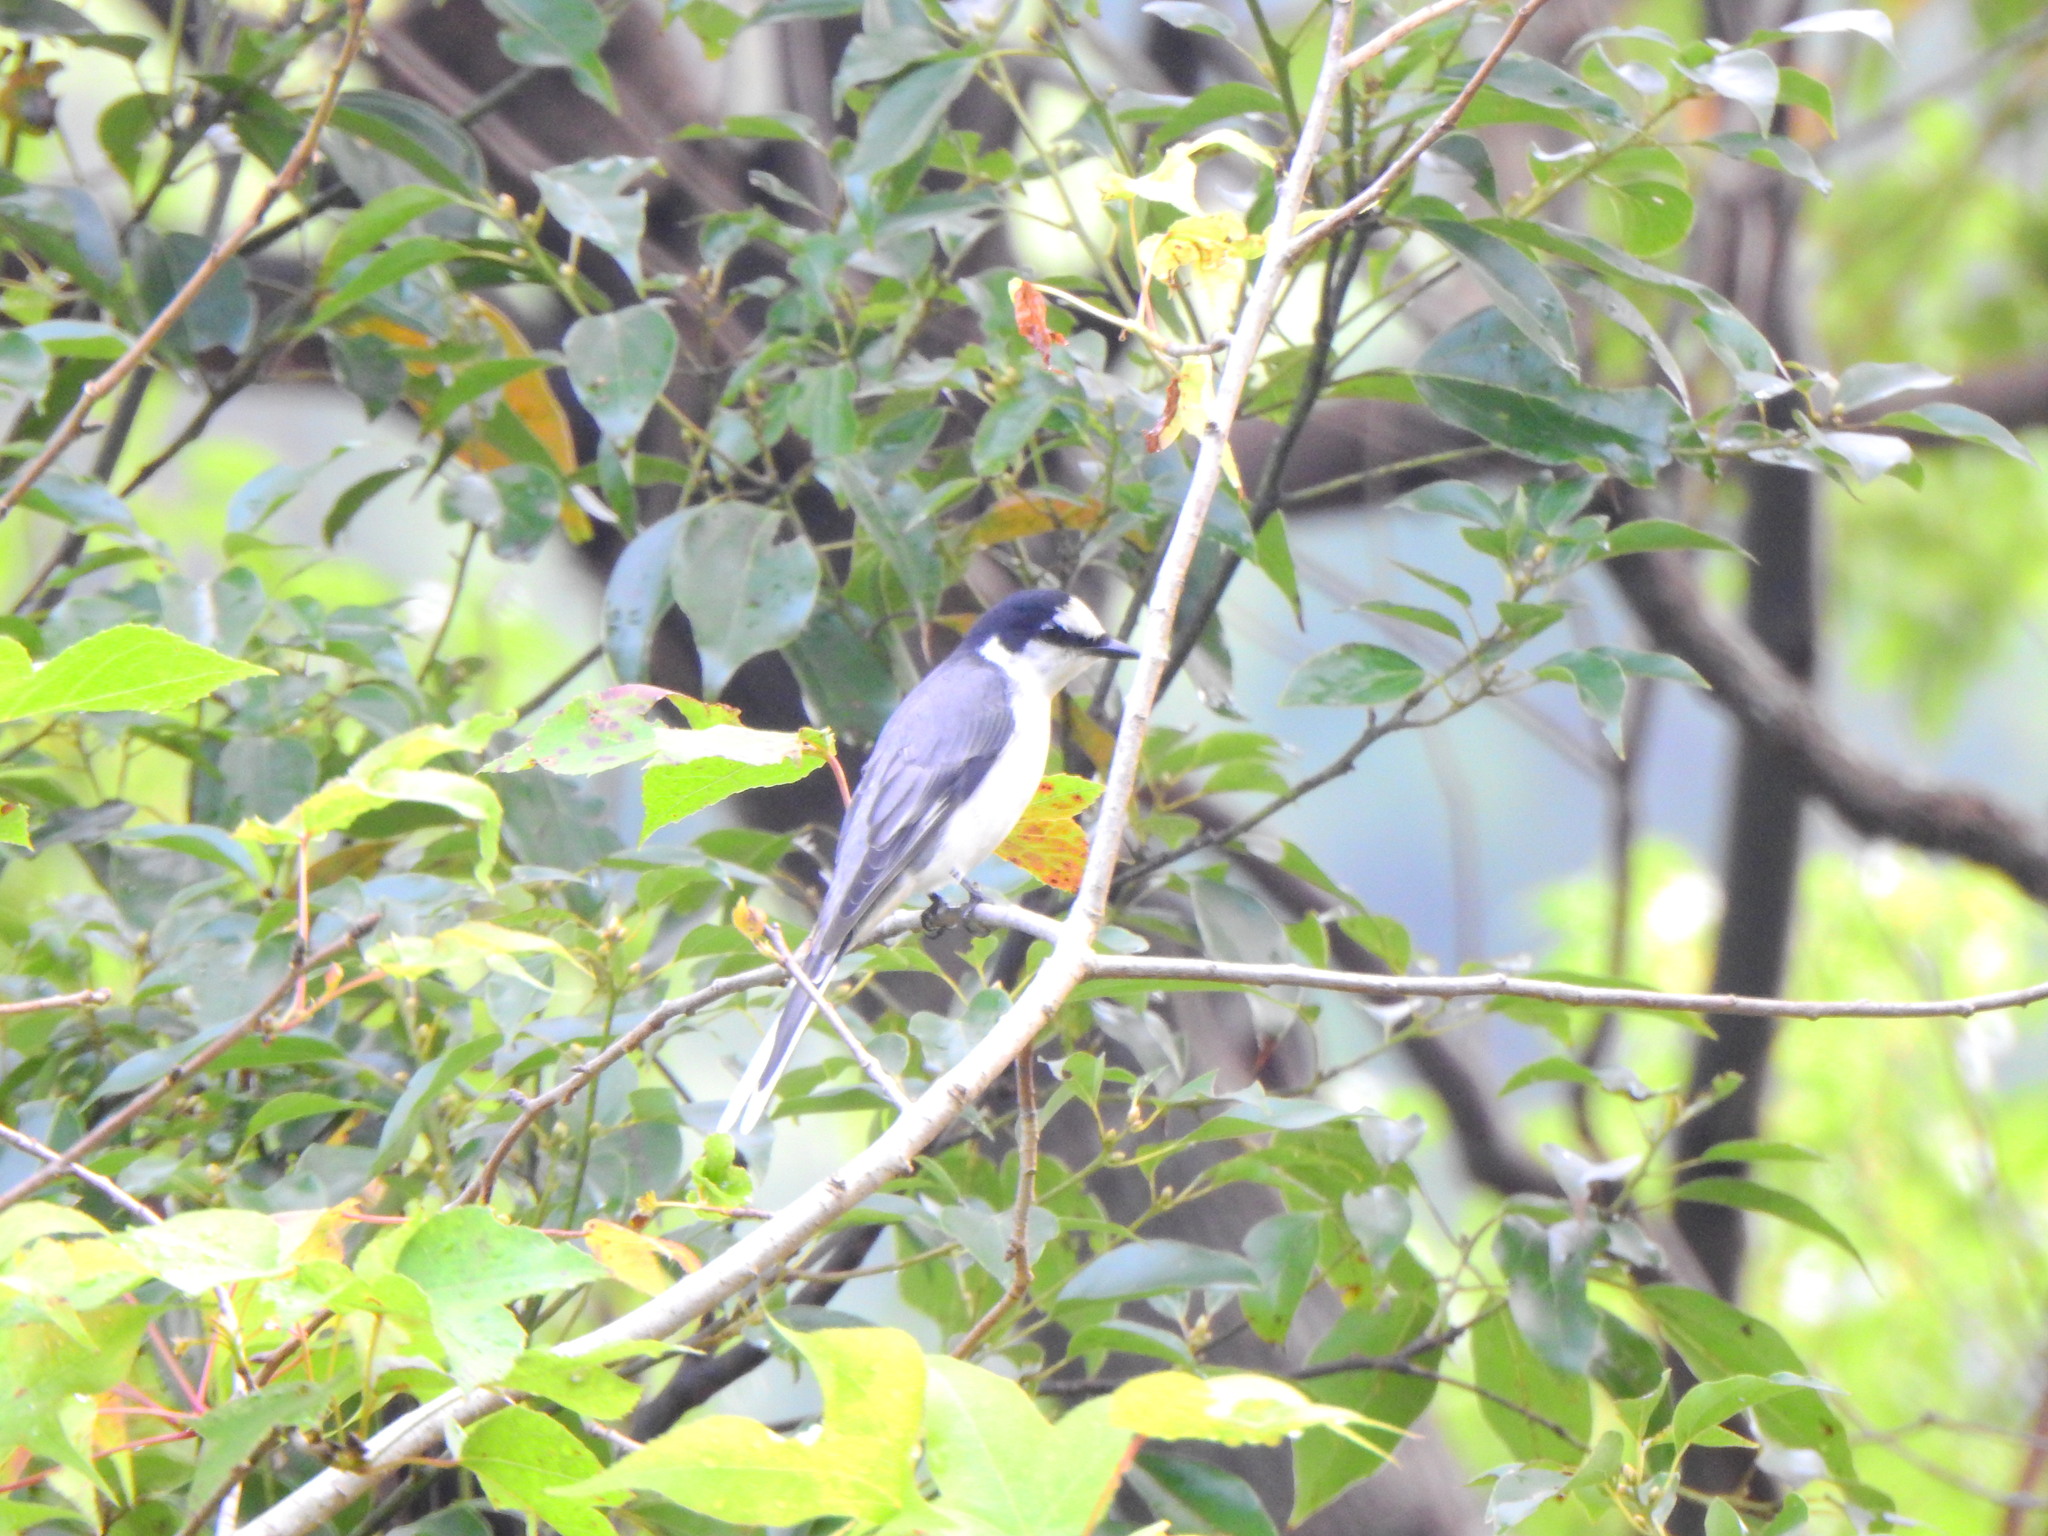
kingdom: Animalia
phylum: Chordata
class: Aves
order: Passeriformes
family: Campephagidae
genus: Pericrocotus
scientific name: Pericrocotus divaricatus
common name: Ashy minivet
